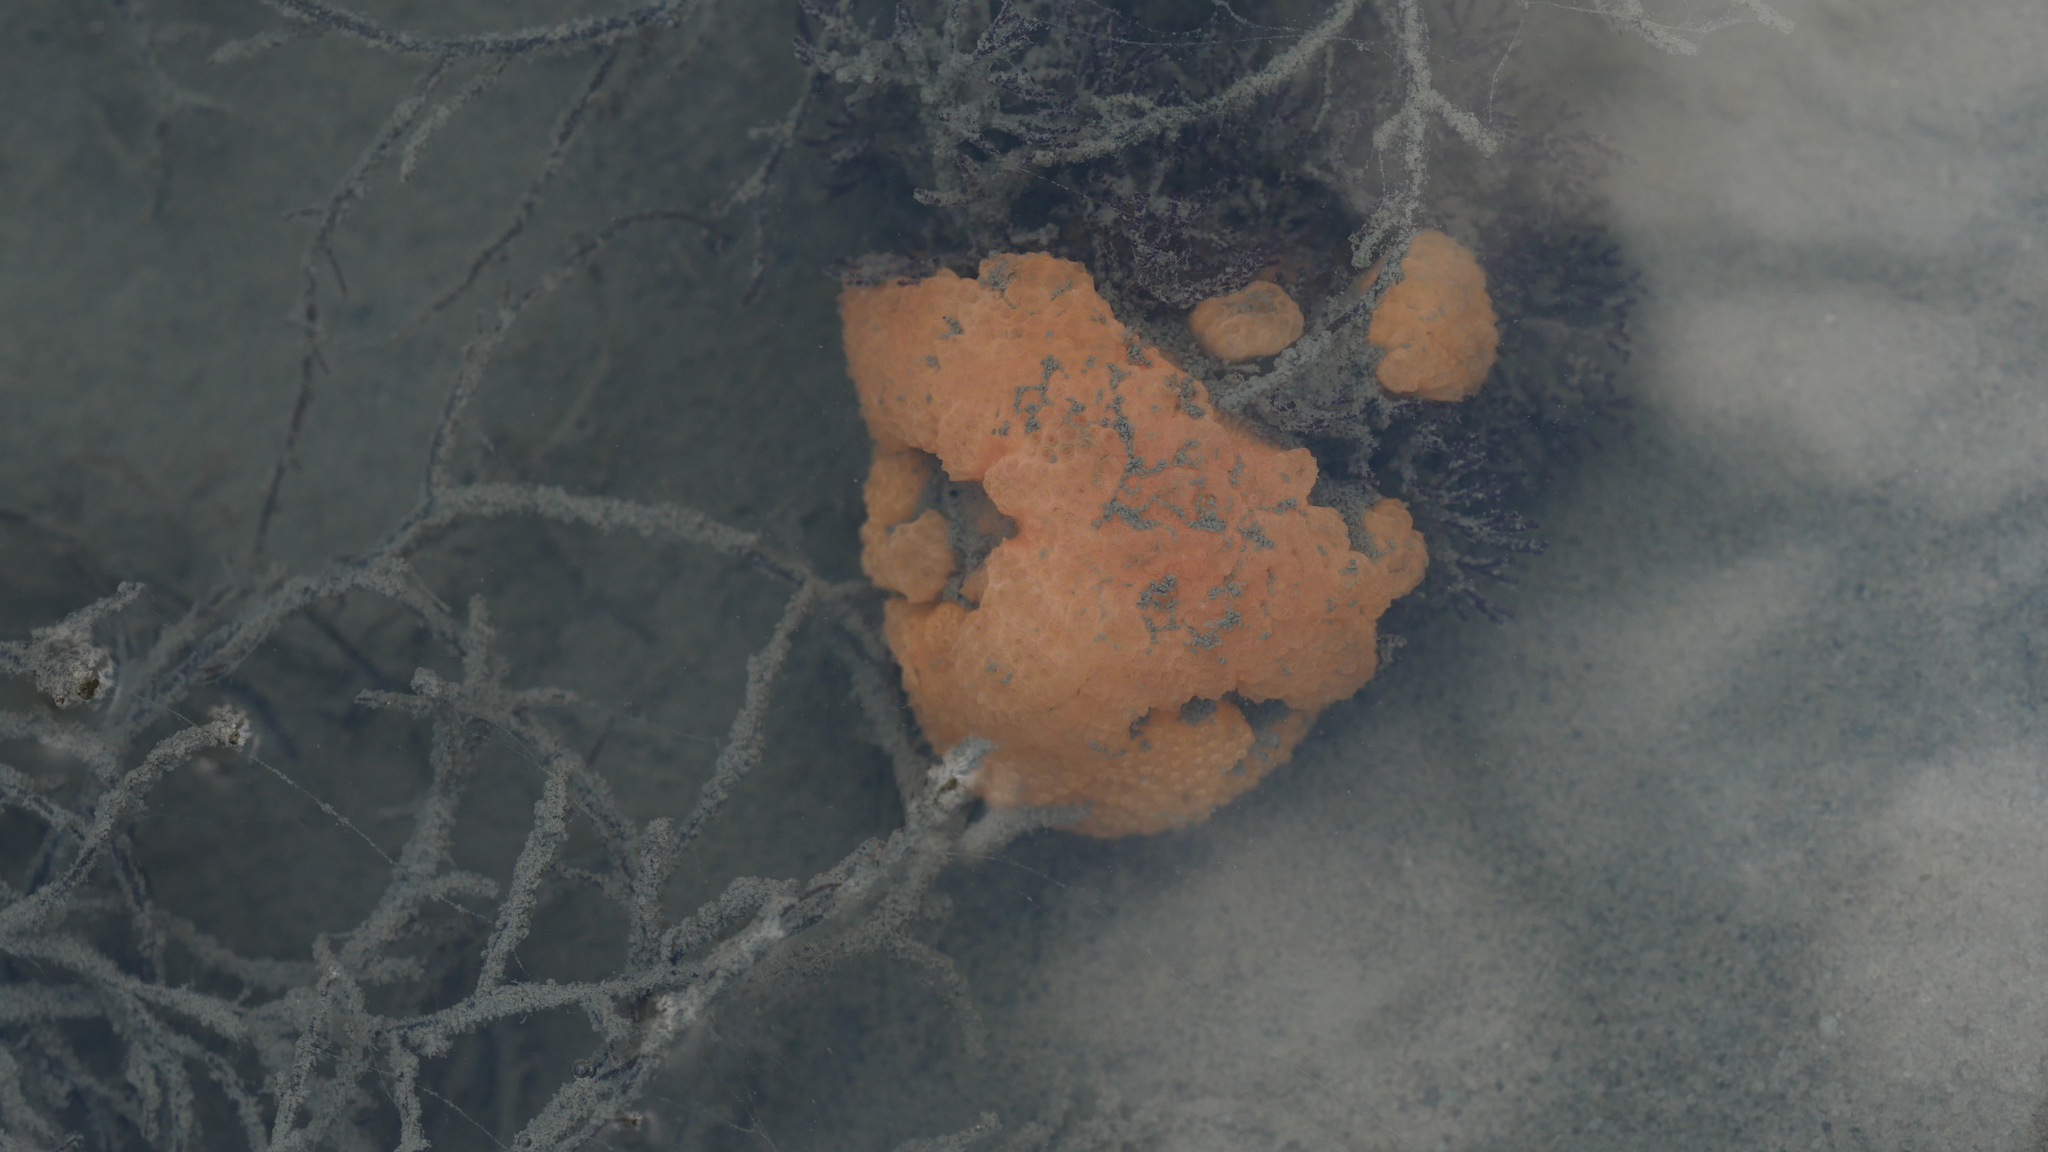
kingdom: Animalia
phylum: Chordata
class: Ascidiacea
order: Aplousobranchia
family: Polyclinidae
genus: Aplidium
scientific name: Aplidium stellatum
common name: Atlantic sea pork
